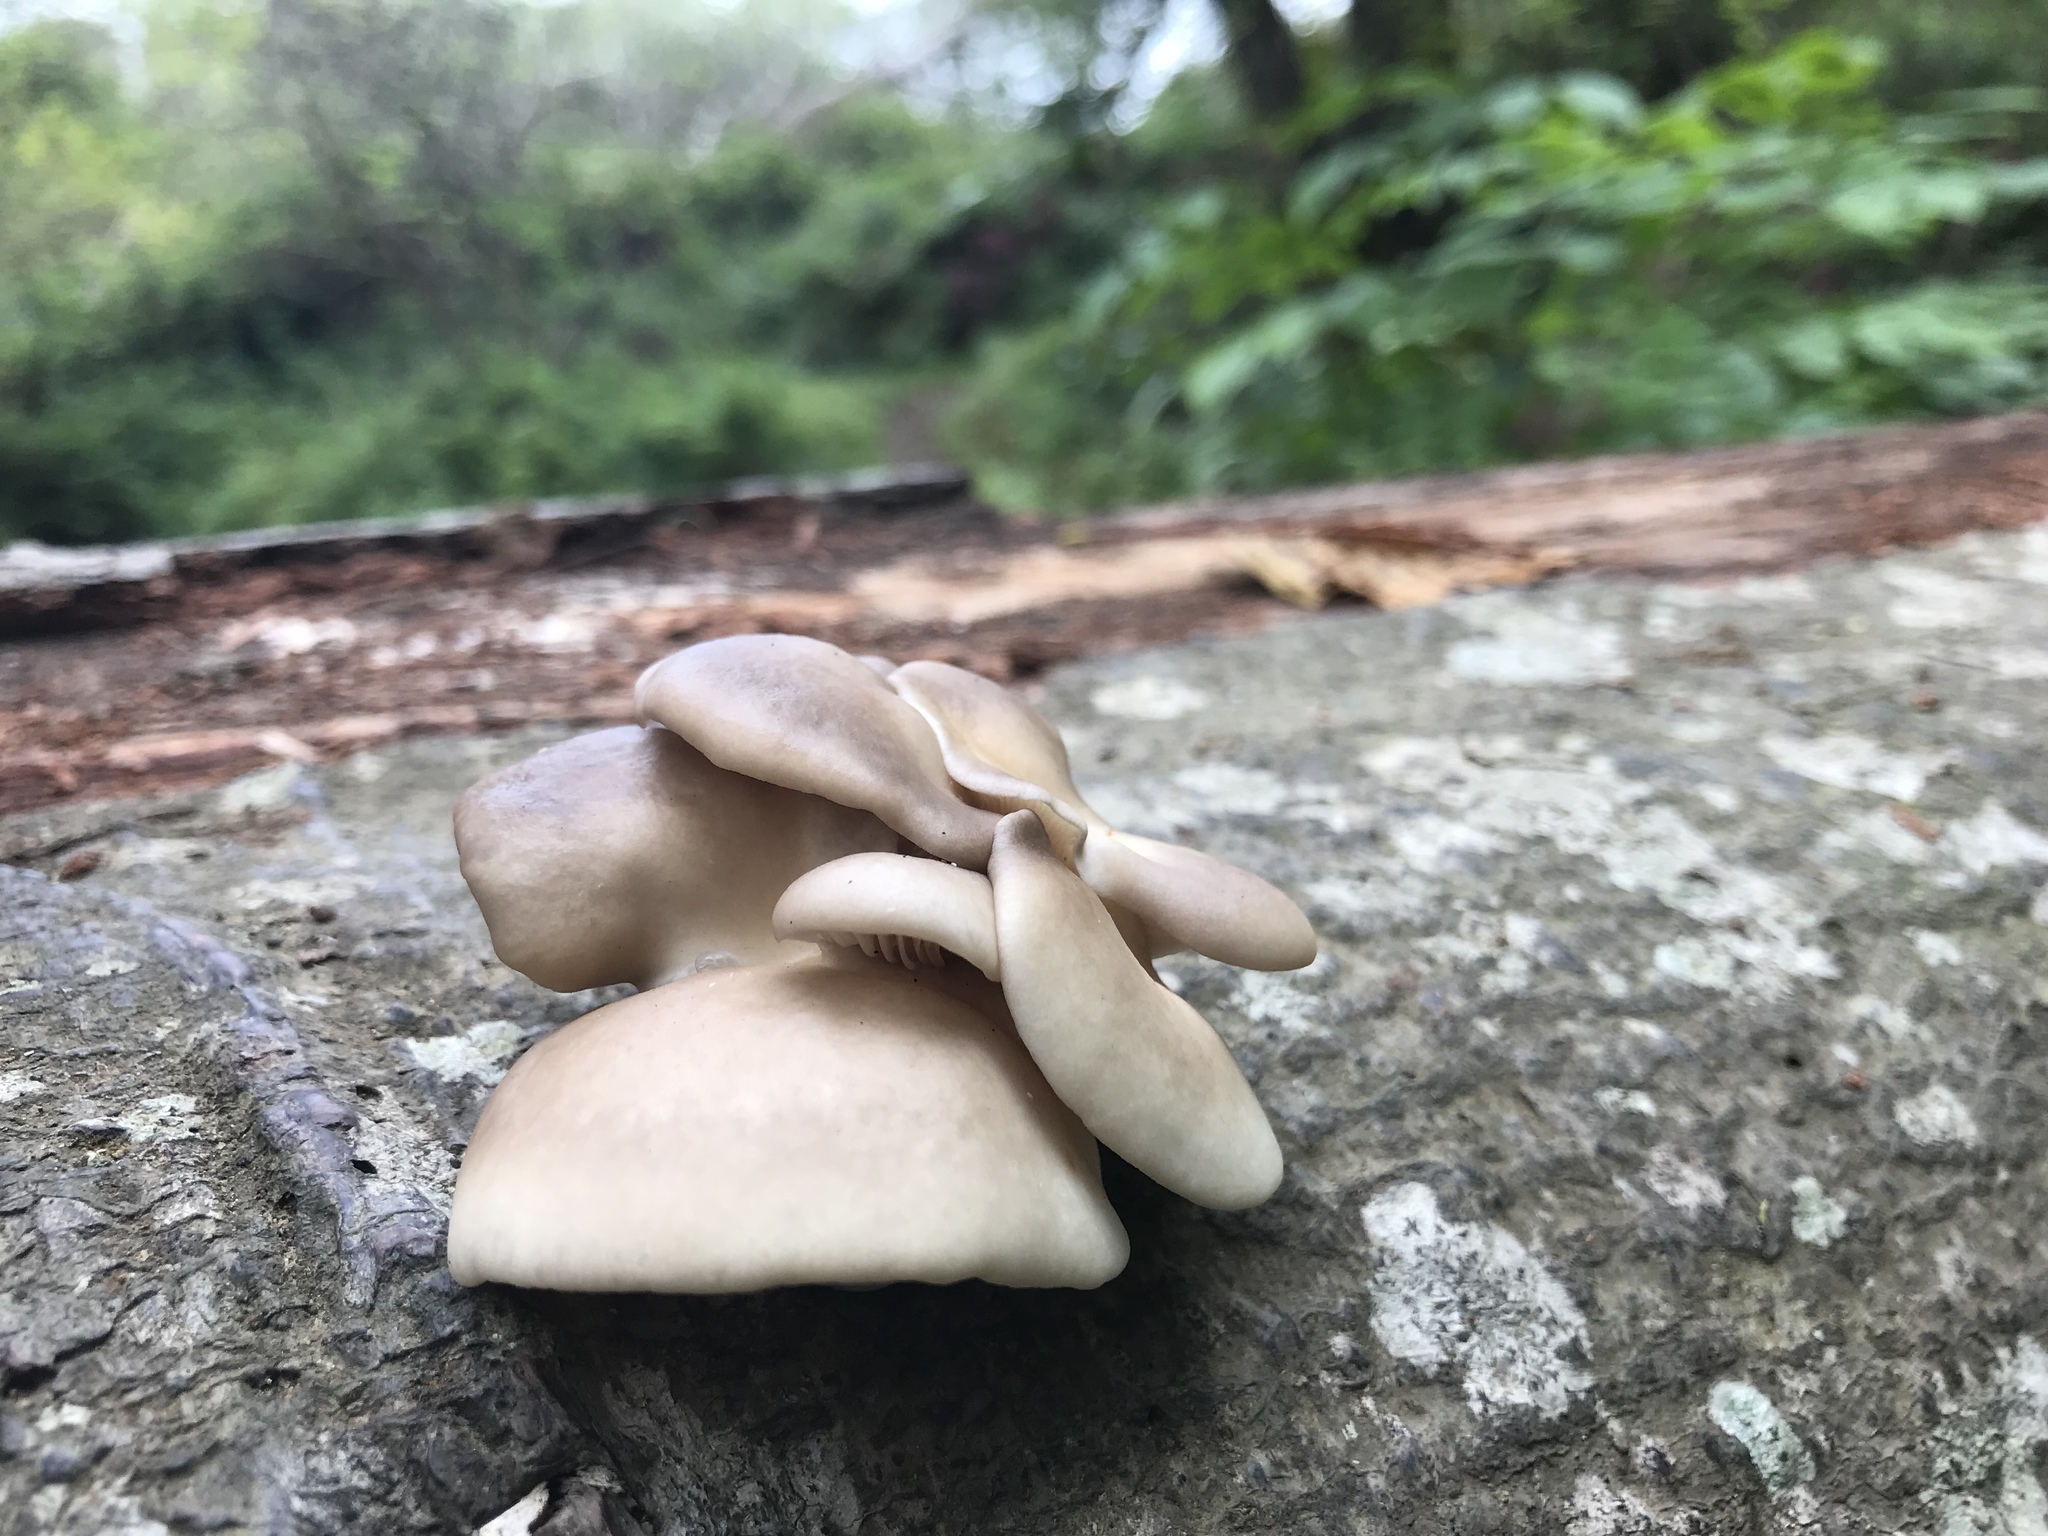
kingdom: Fungi
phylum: Basidiomycota
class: Agaricomycetes
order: Agaricales
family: Pleurotaceae
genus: Pleurotus
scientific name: Pleurotus ostreatus
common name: Oyster mushroom
